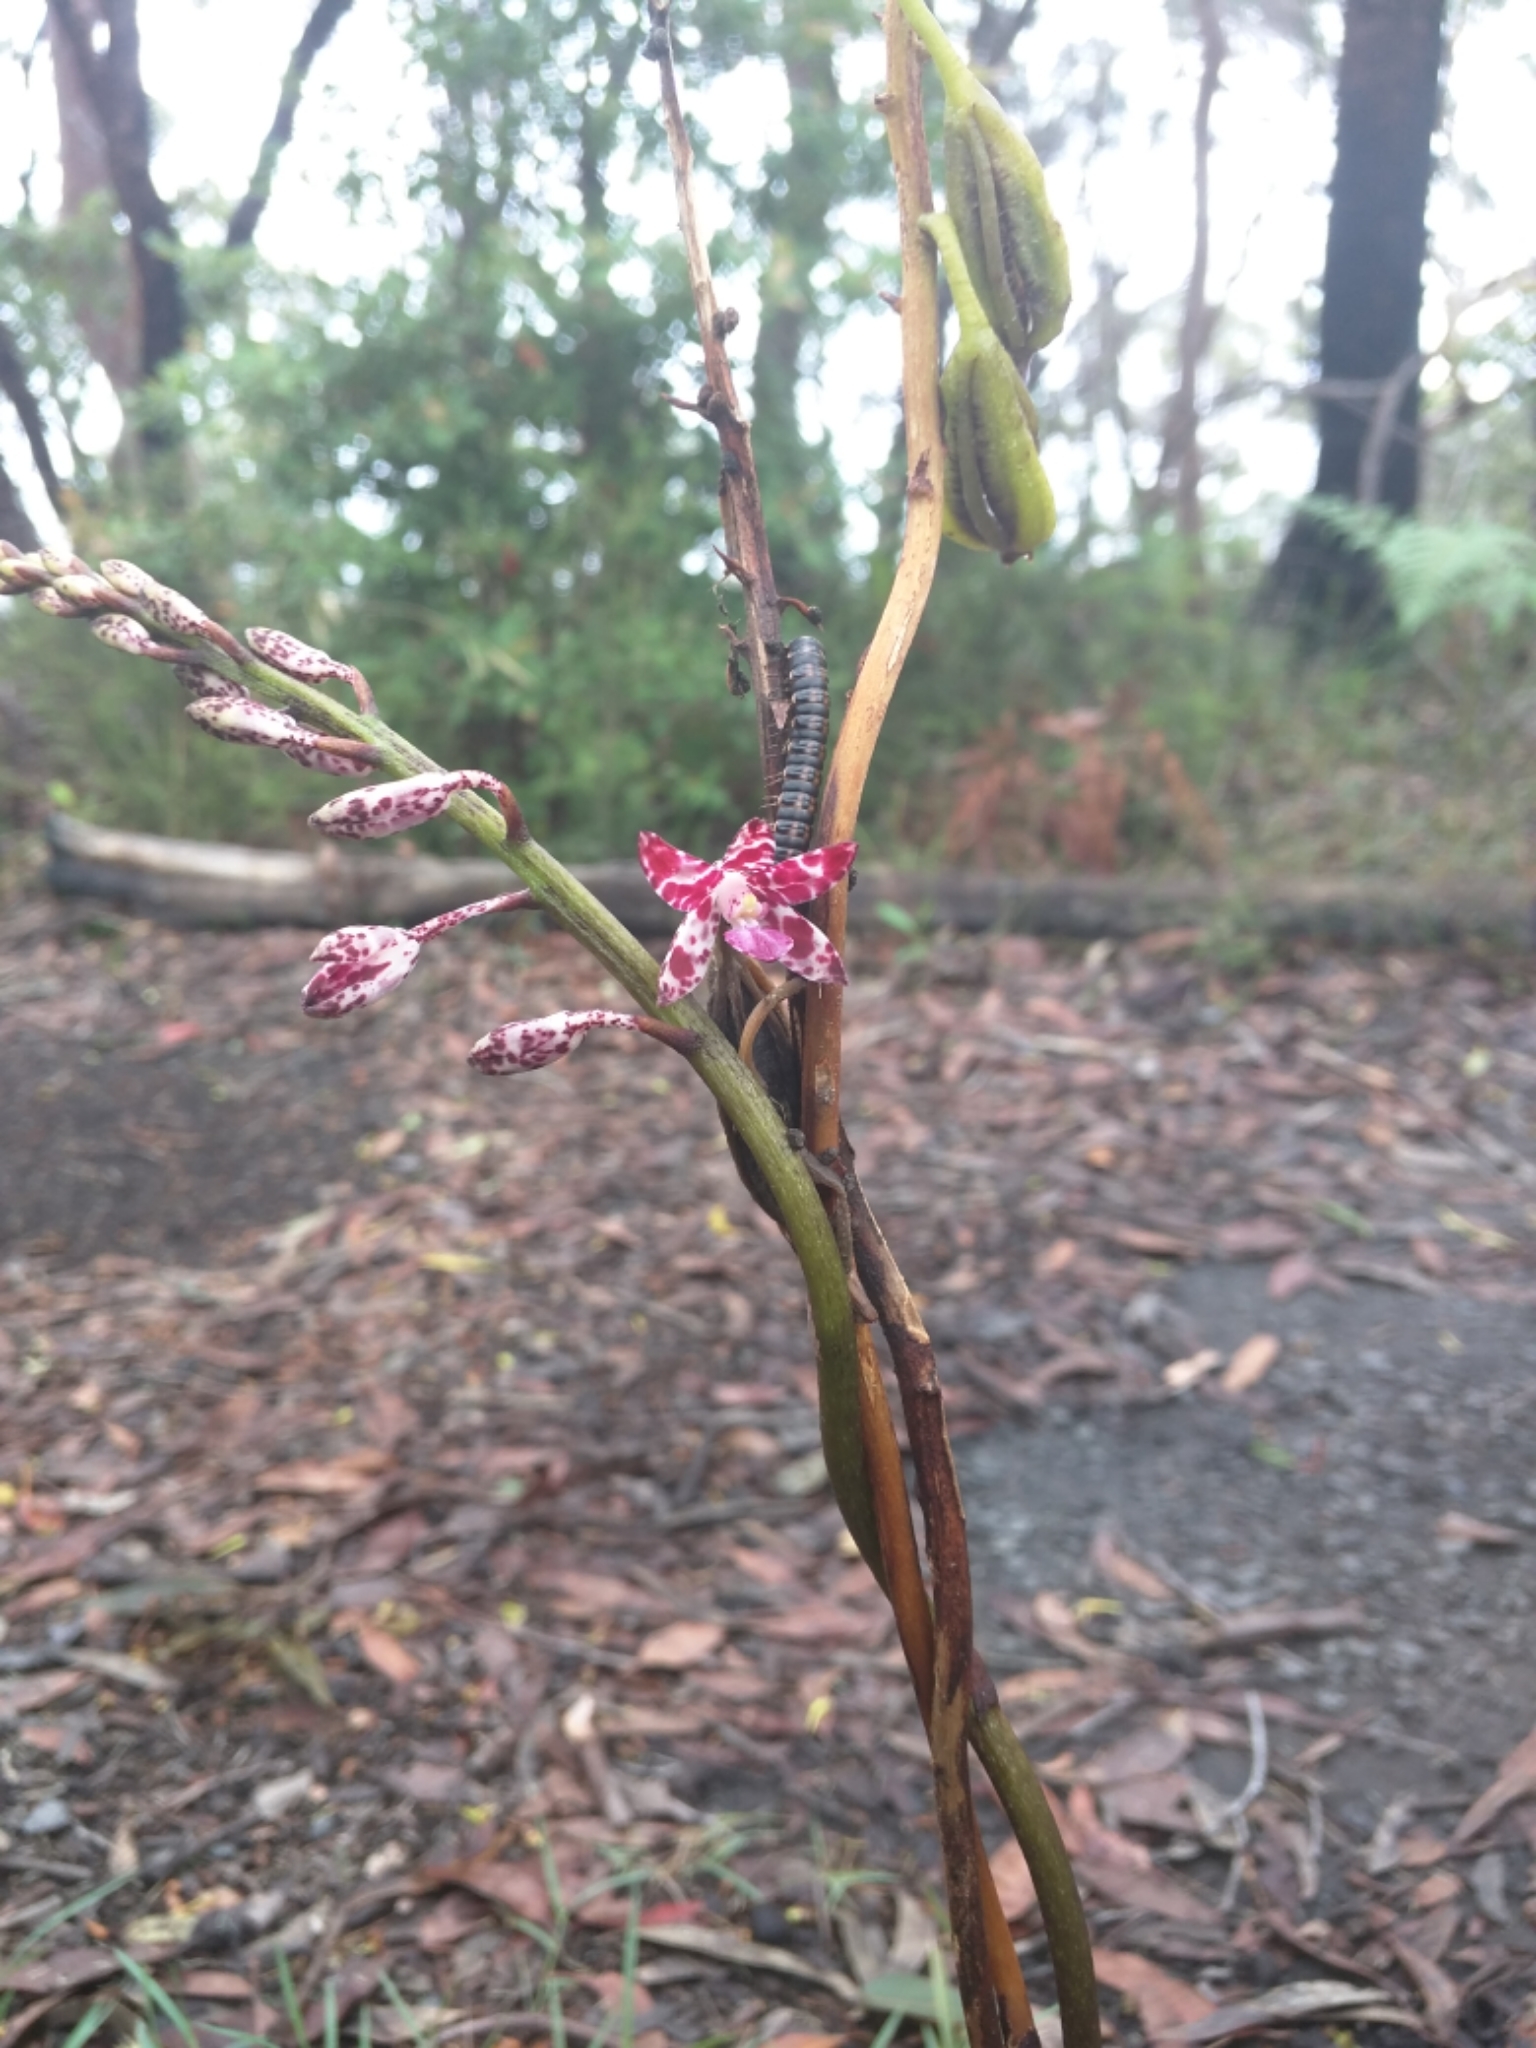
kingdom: Plantae
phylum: Tracheophyta
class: Liliopsida
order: Asparagales
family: Orchidaceae
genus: Dipodium
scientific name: Dipodium variegatum
